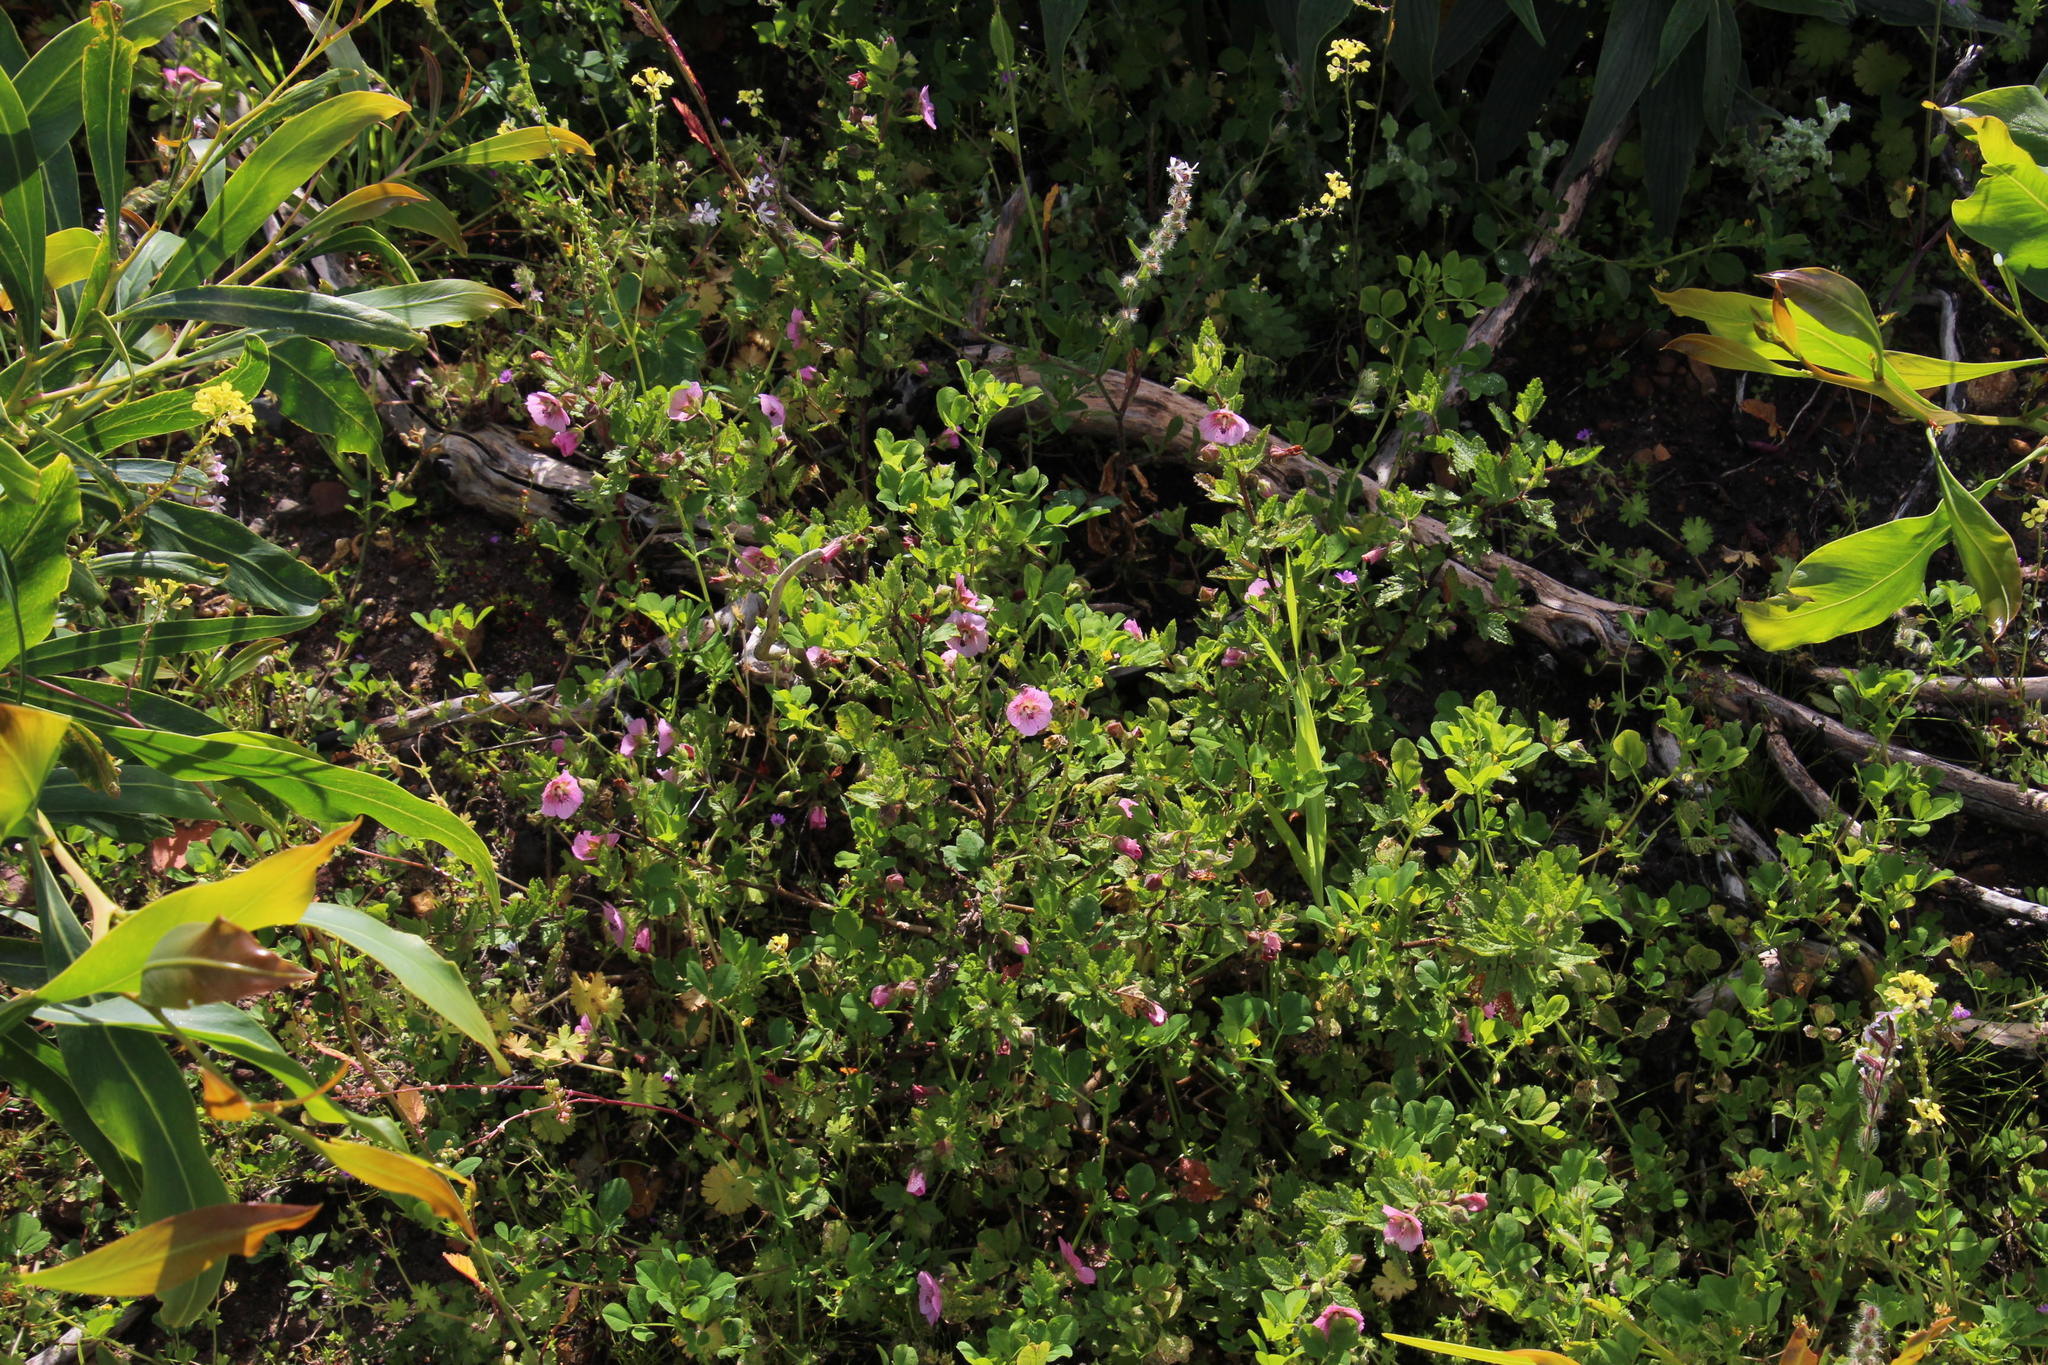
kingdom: Plantae
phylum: Tracheophyta
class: Magnoliopsida
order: Malvales
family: Malvaceae
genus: Anisodontea
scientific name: Anisodontea scabrosa
